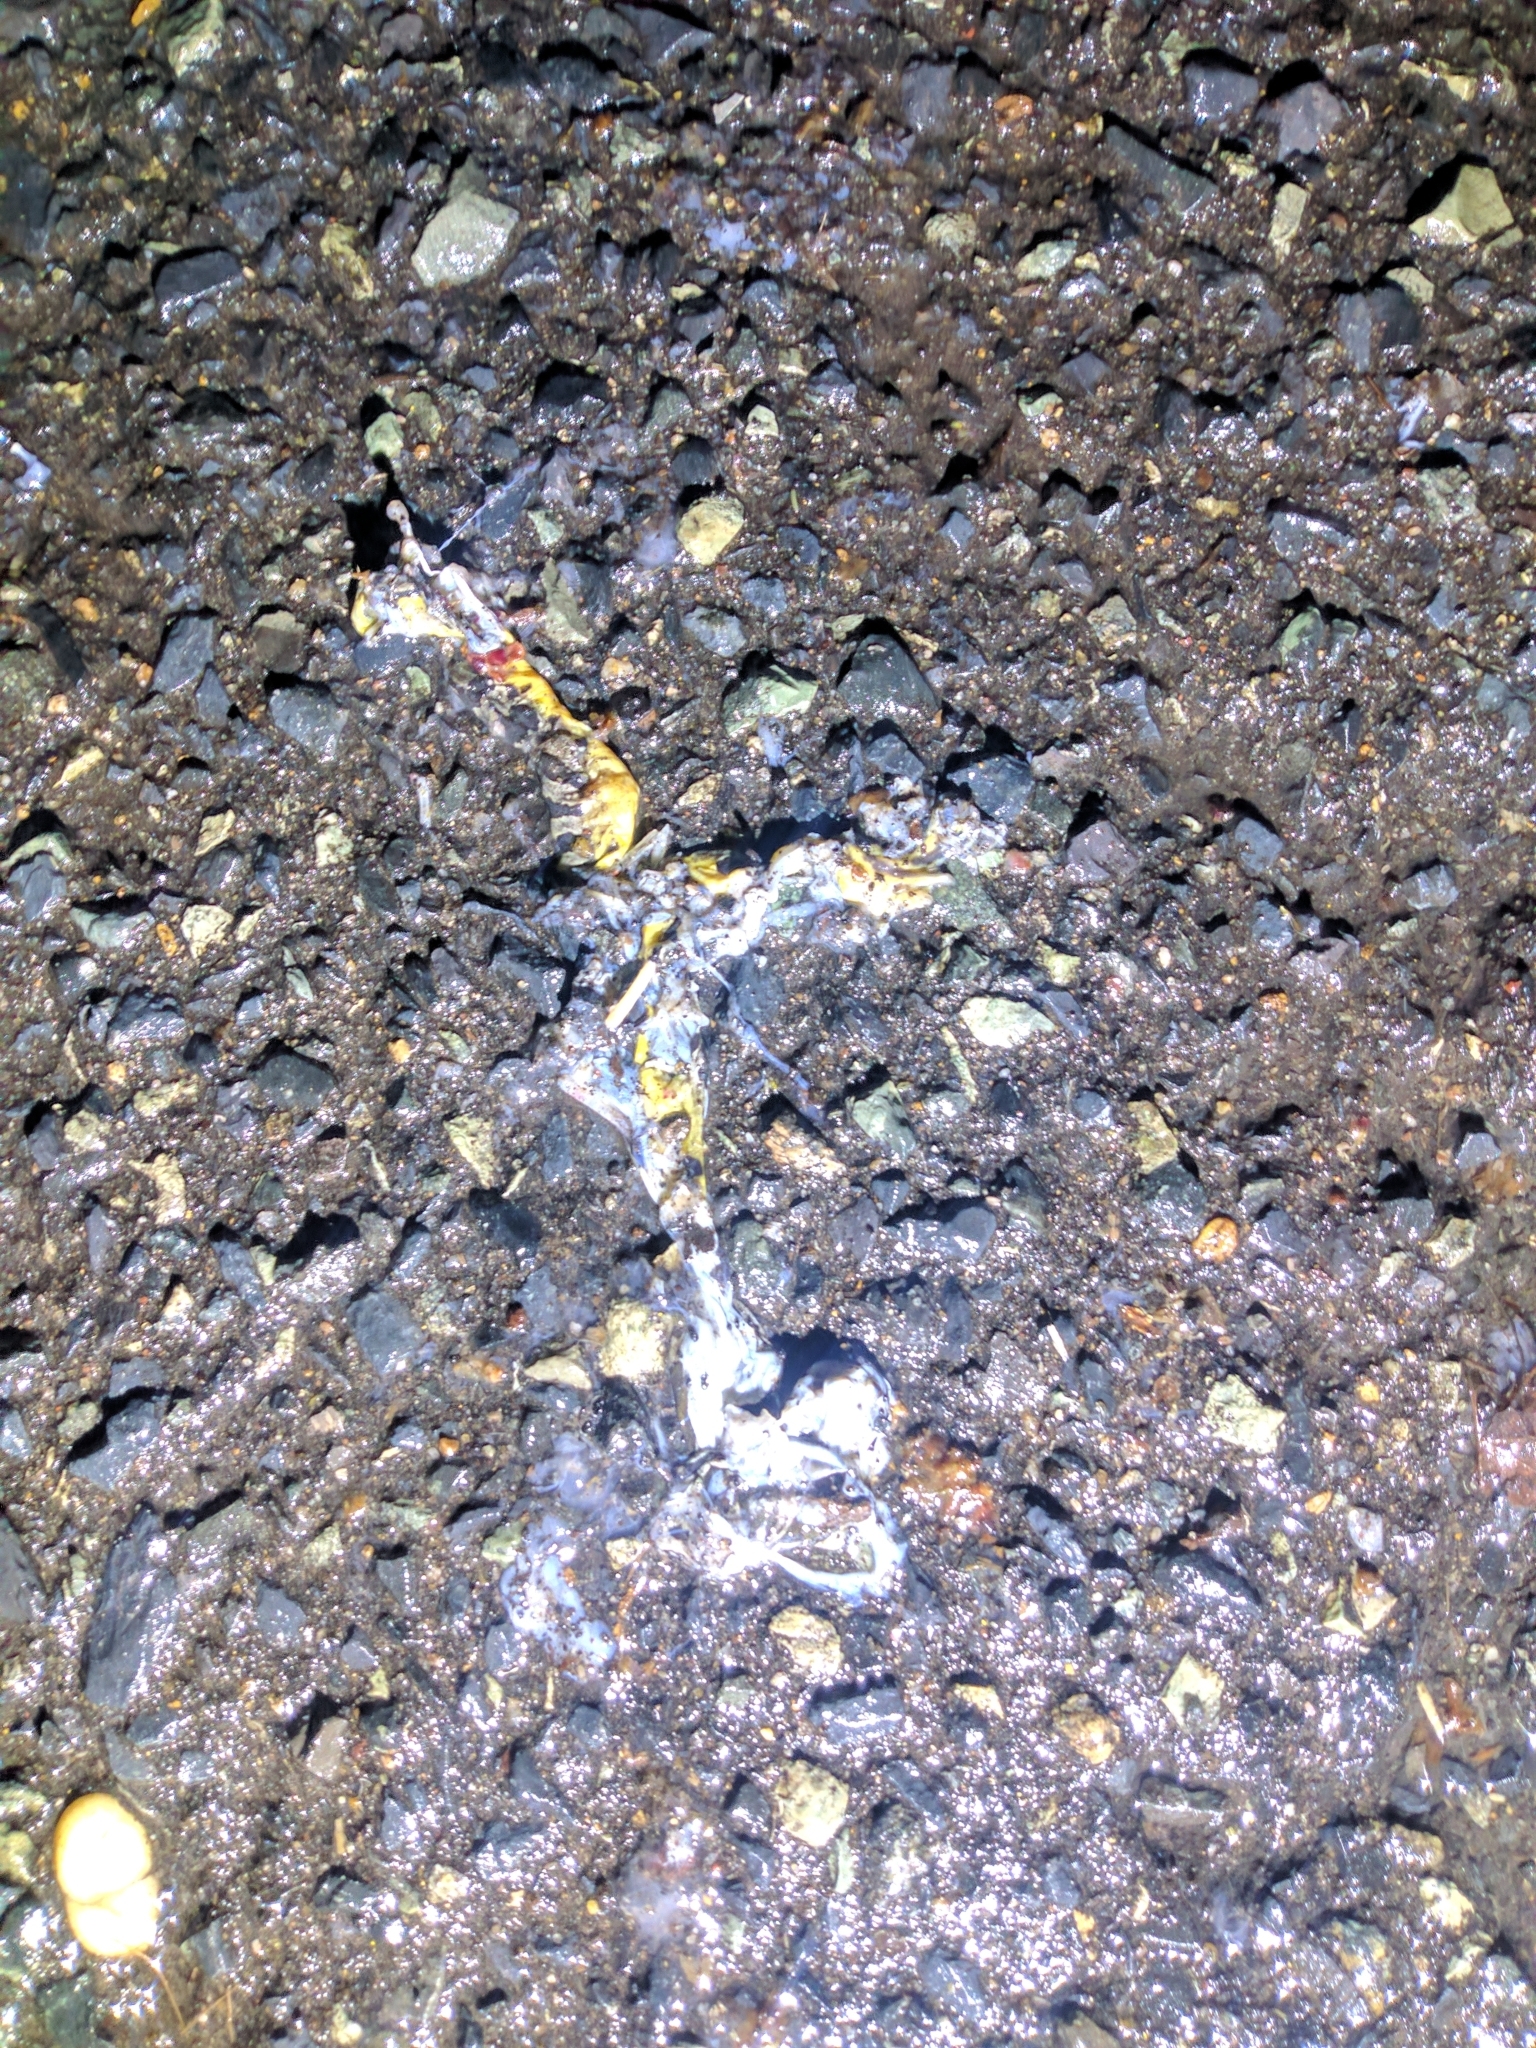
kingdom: Animalia
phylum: Chordata
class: Amphibia
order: Anura
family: Ranidae
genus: Lithobates
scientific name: Lithobates palustris
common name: Pickerel frog
